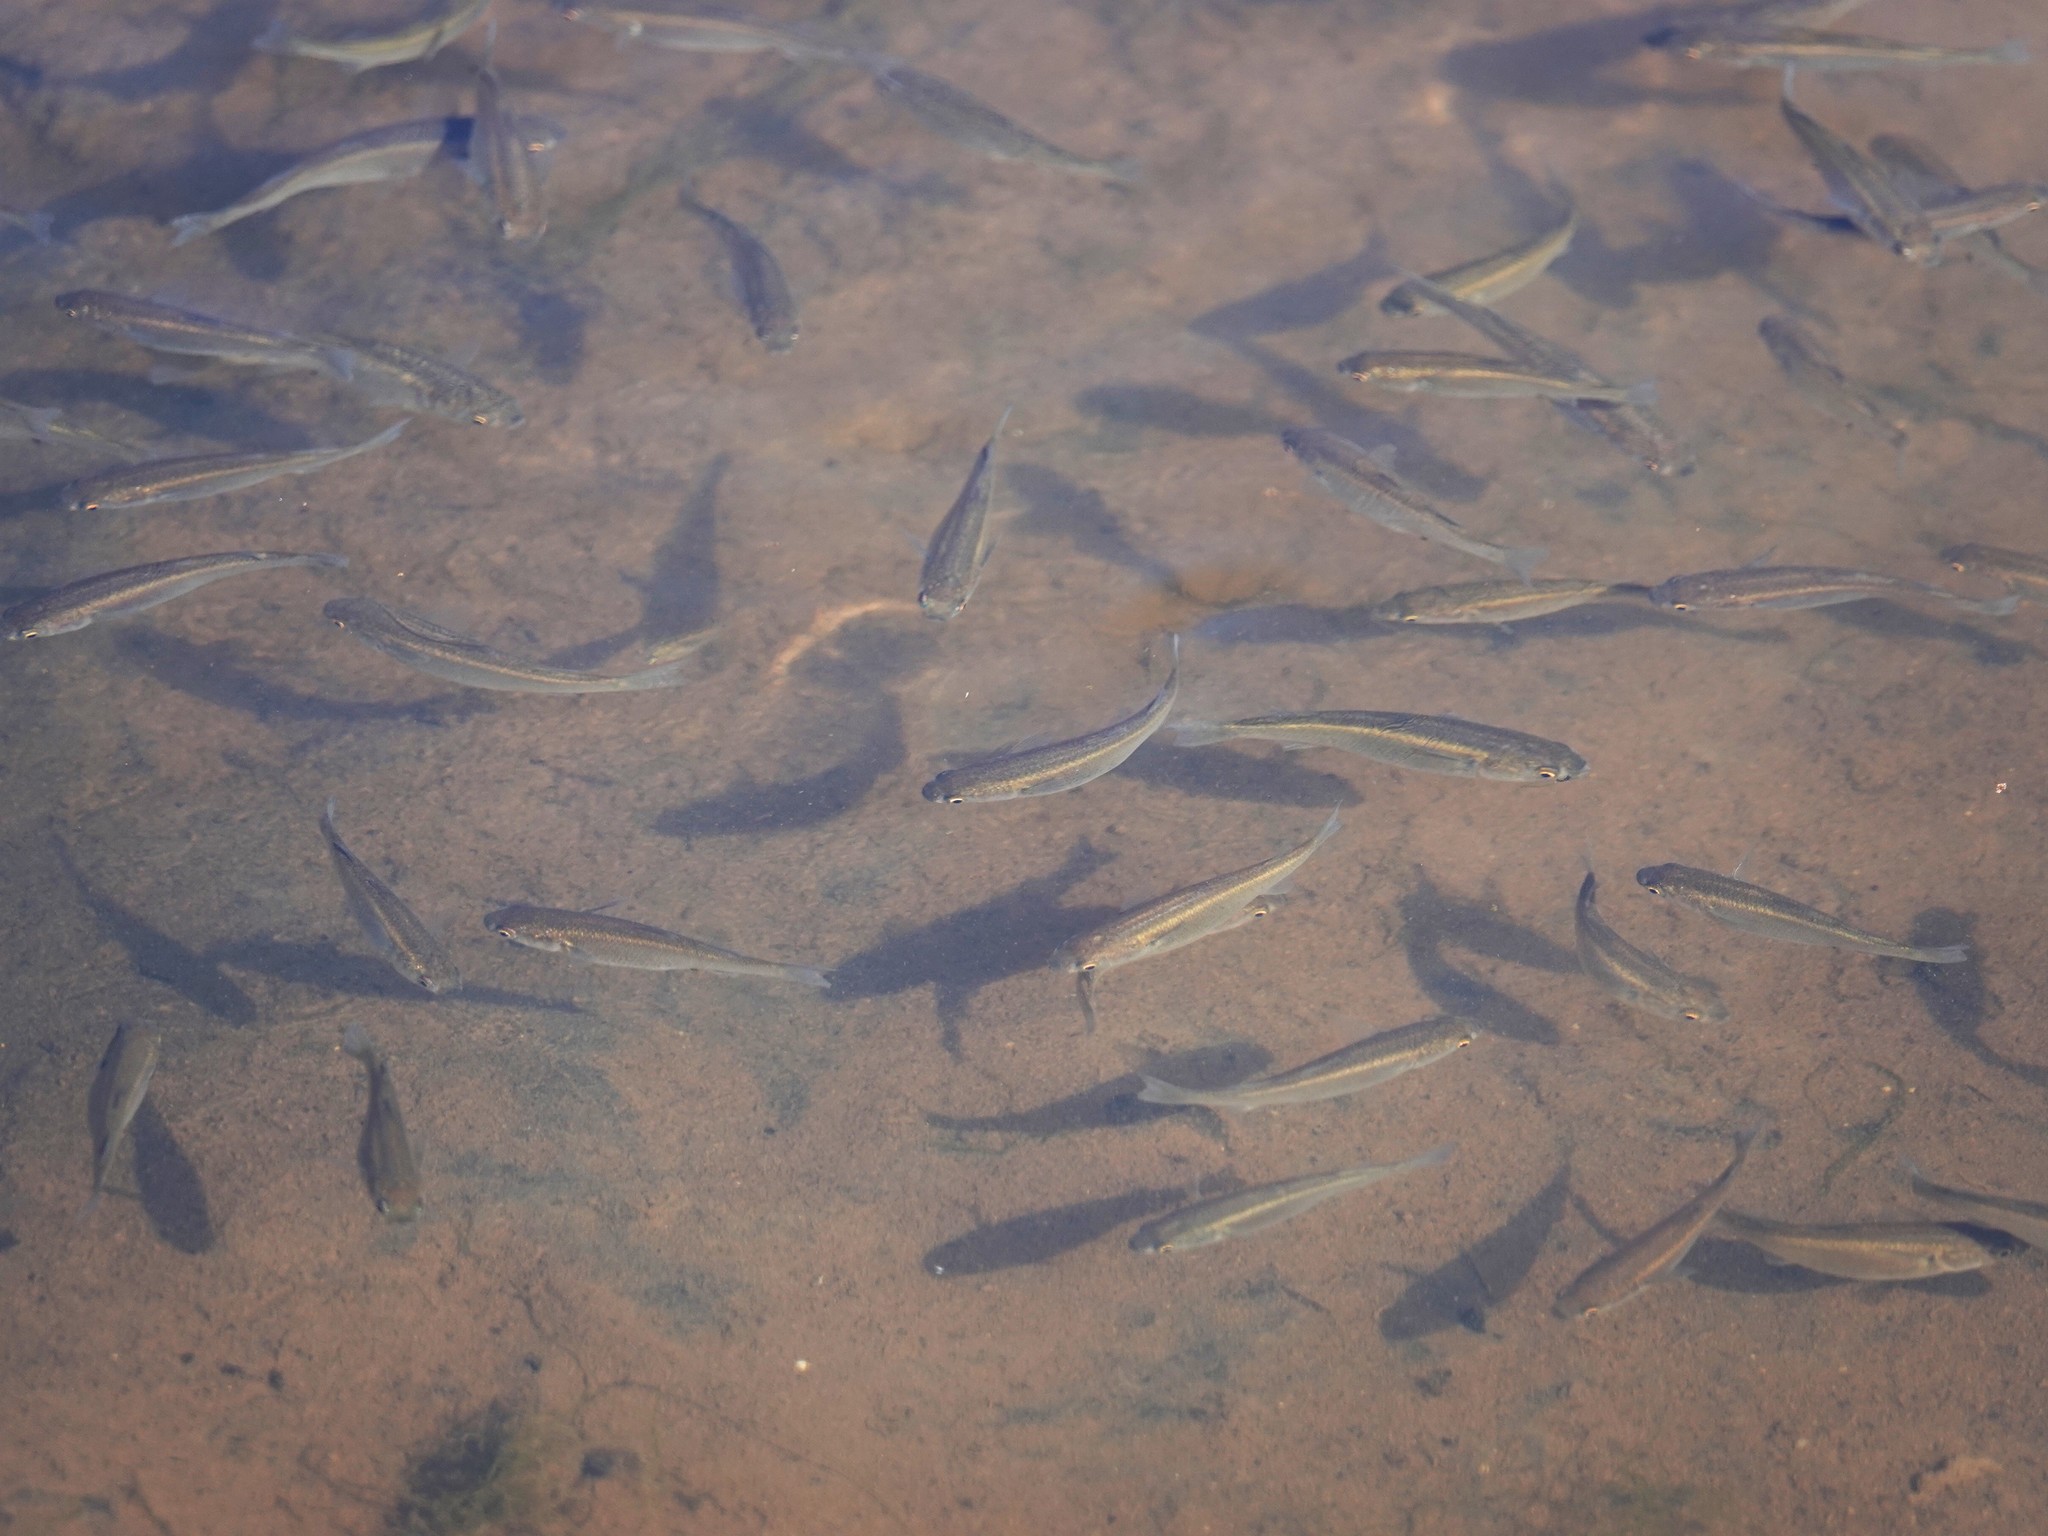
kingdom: Animalia
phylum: Chordata
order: Mugiliformes
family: Mugilidae
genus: Mugil
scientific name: Mugil cephalus
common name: Grey mullet
